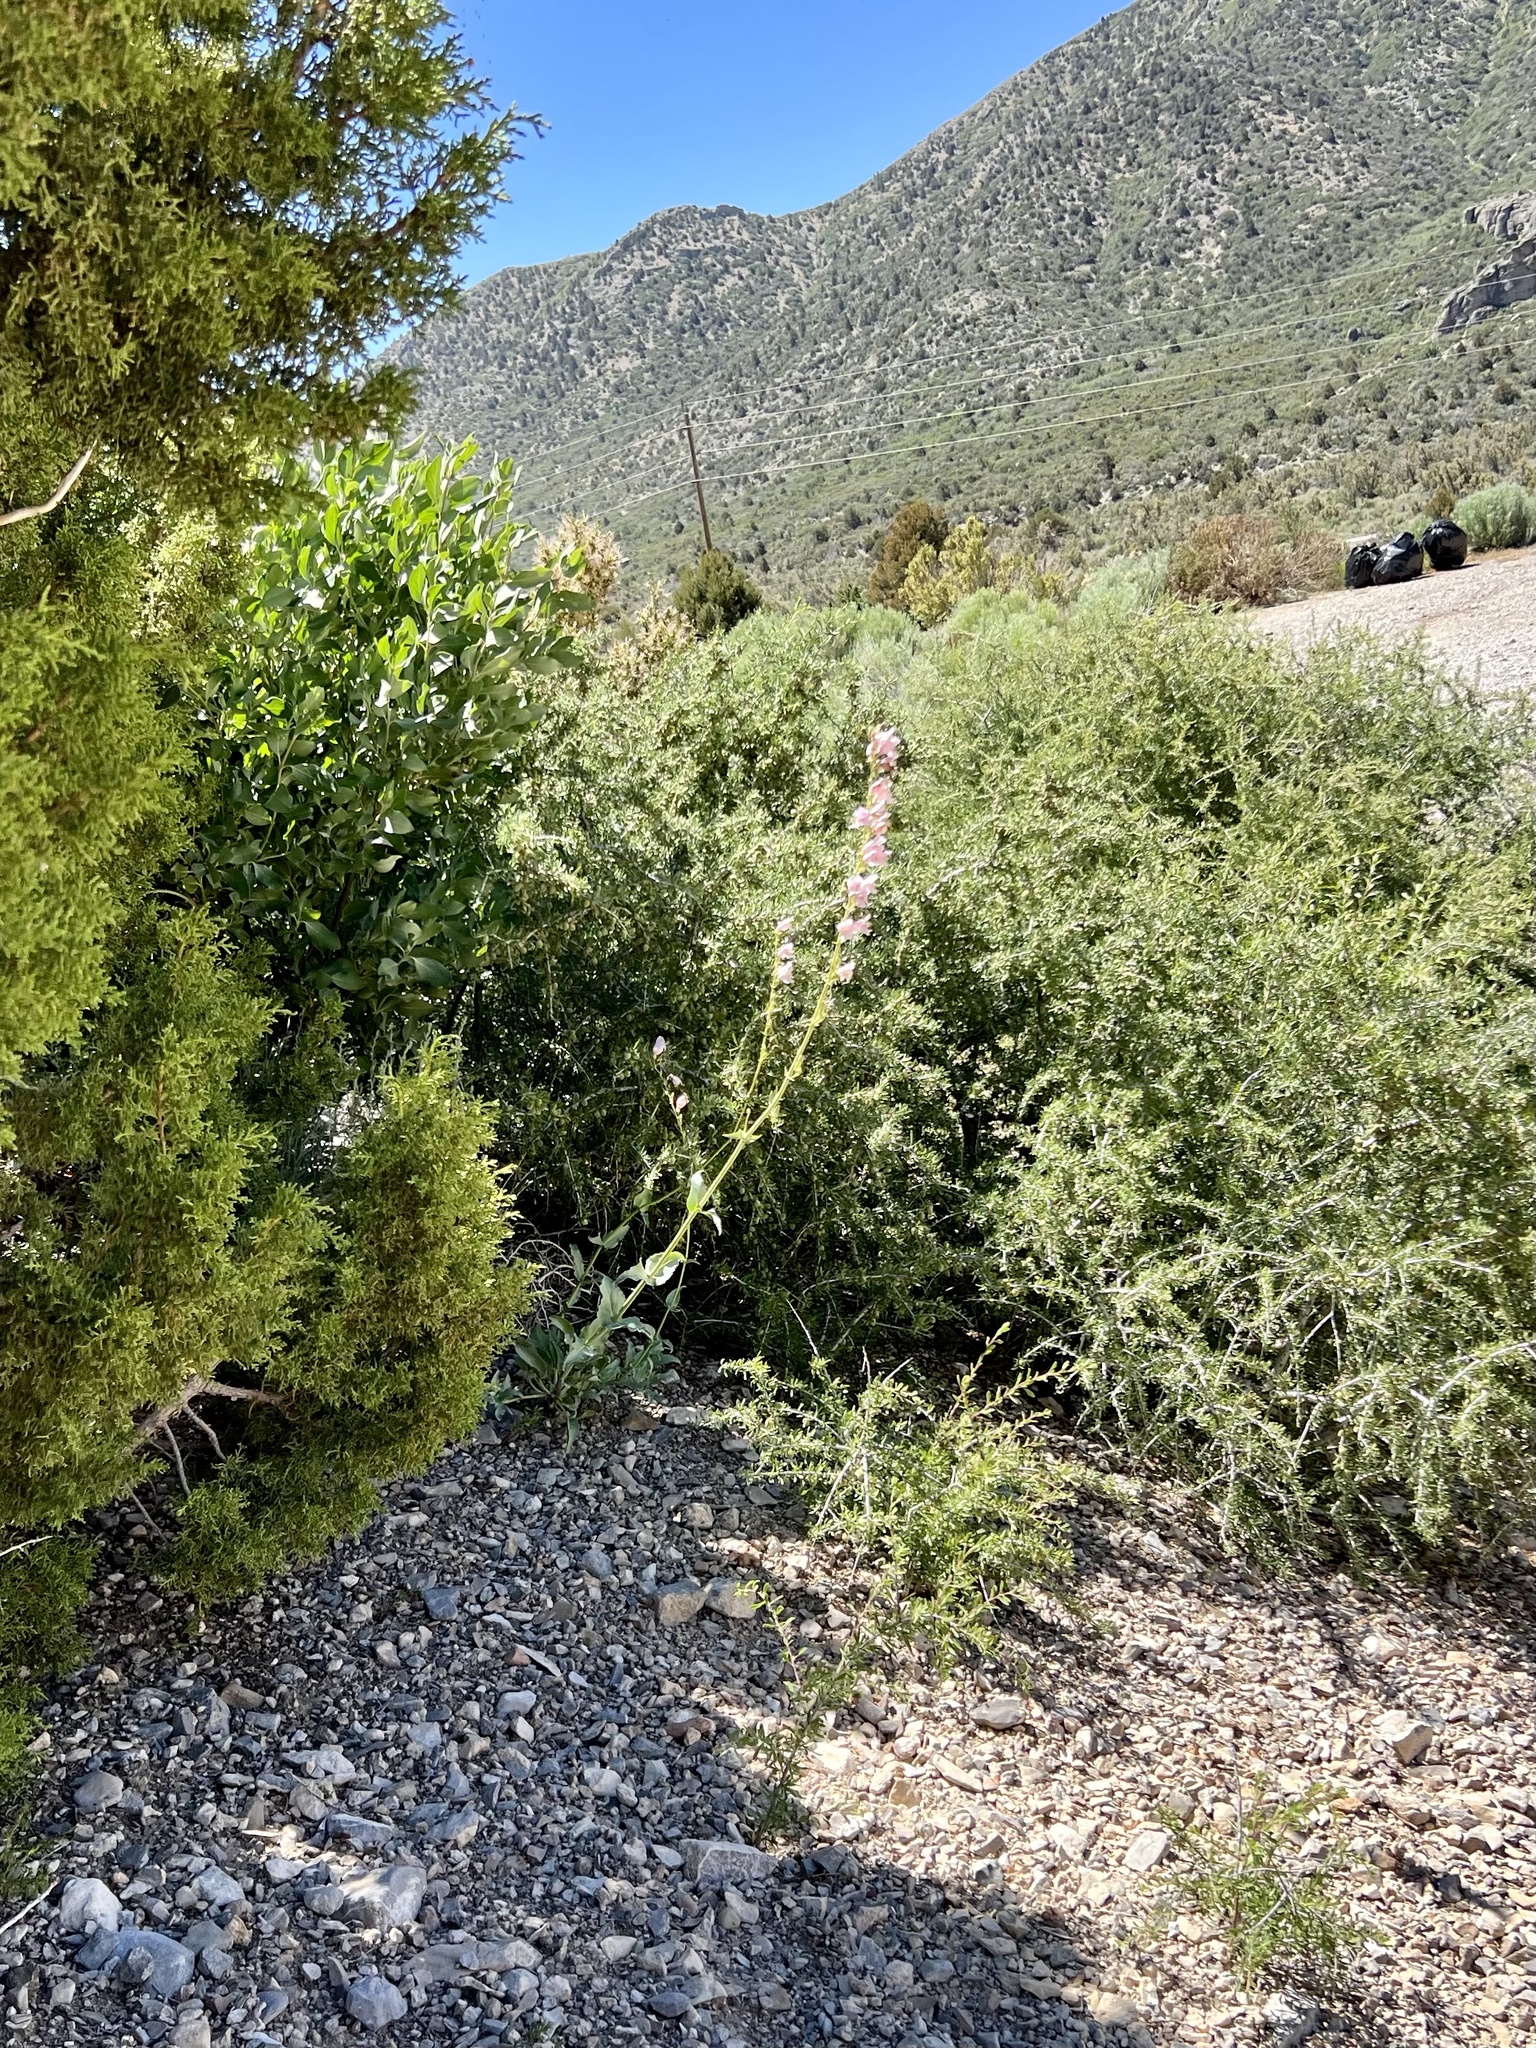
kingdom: Plantae
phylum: Tracheophyta
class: Magnoliopsida
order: Lamiales
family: Plantaginaceae
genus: Penstemon
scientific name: Penstemon palmeri
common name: Palmer penstemon
